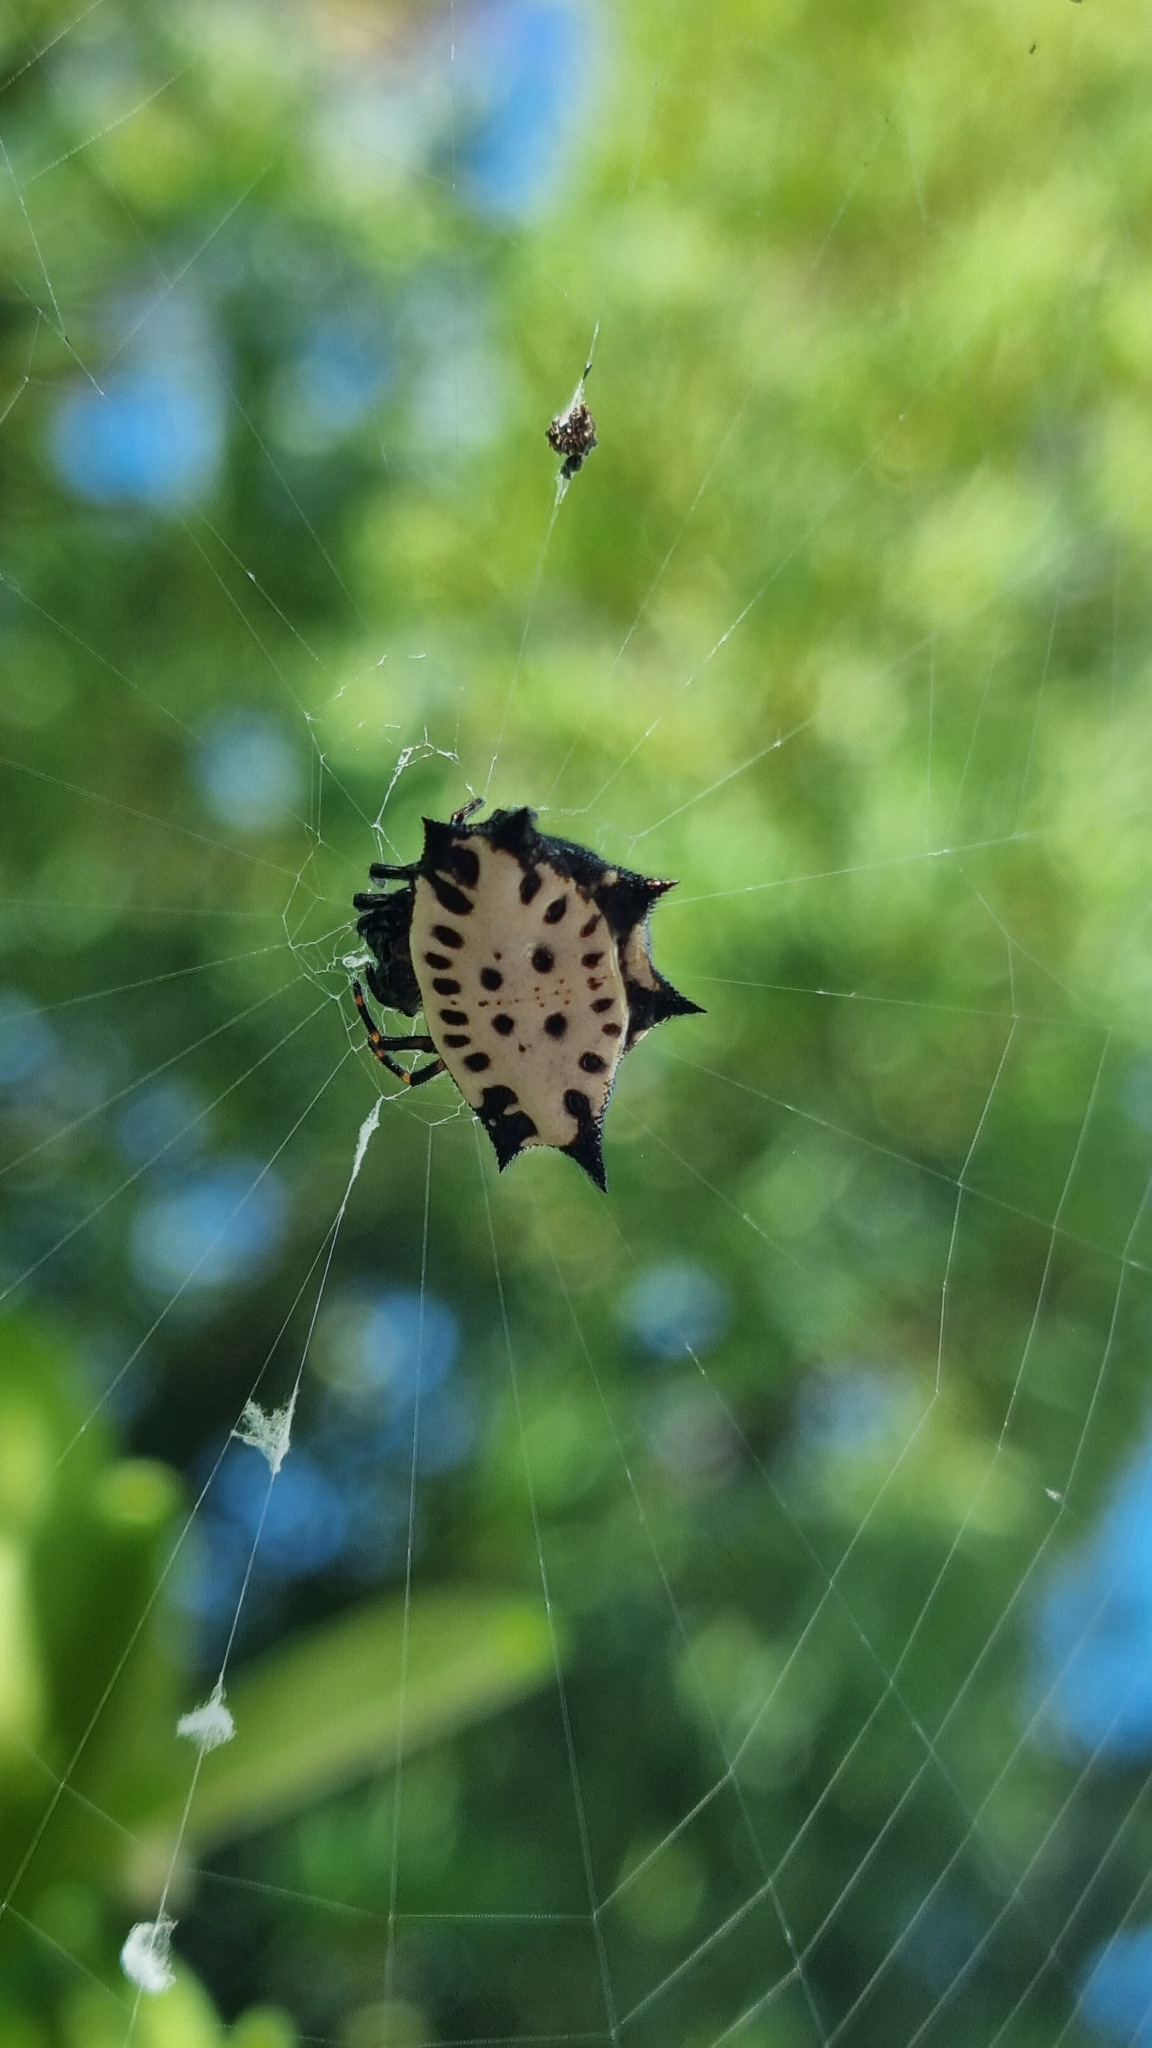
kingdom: Animalia
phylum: Arthropoda
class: Arachnida
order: Araneae
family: Araneidae
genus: Gasteracantha
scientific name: Gasteracantha cancriformis
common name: Orb weavers
